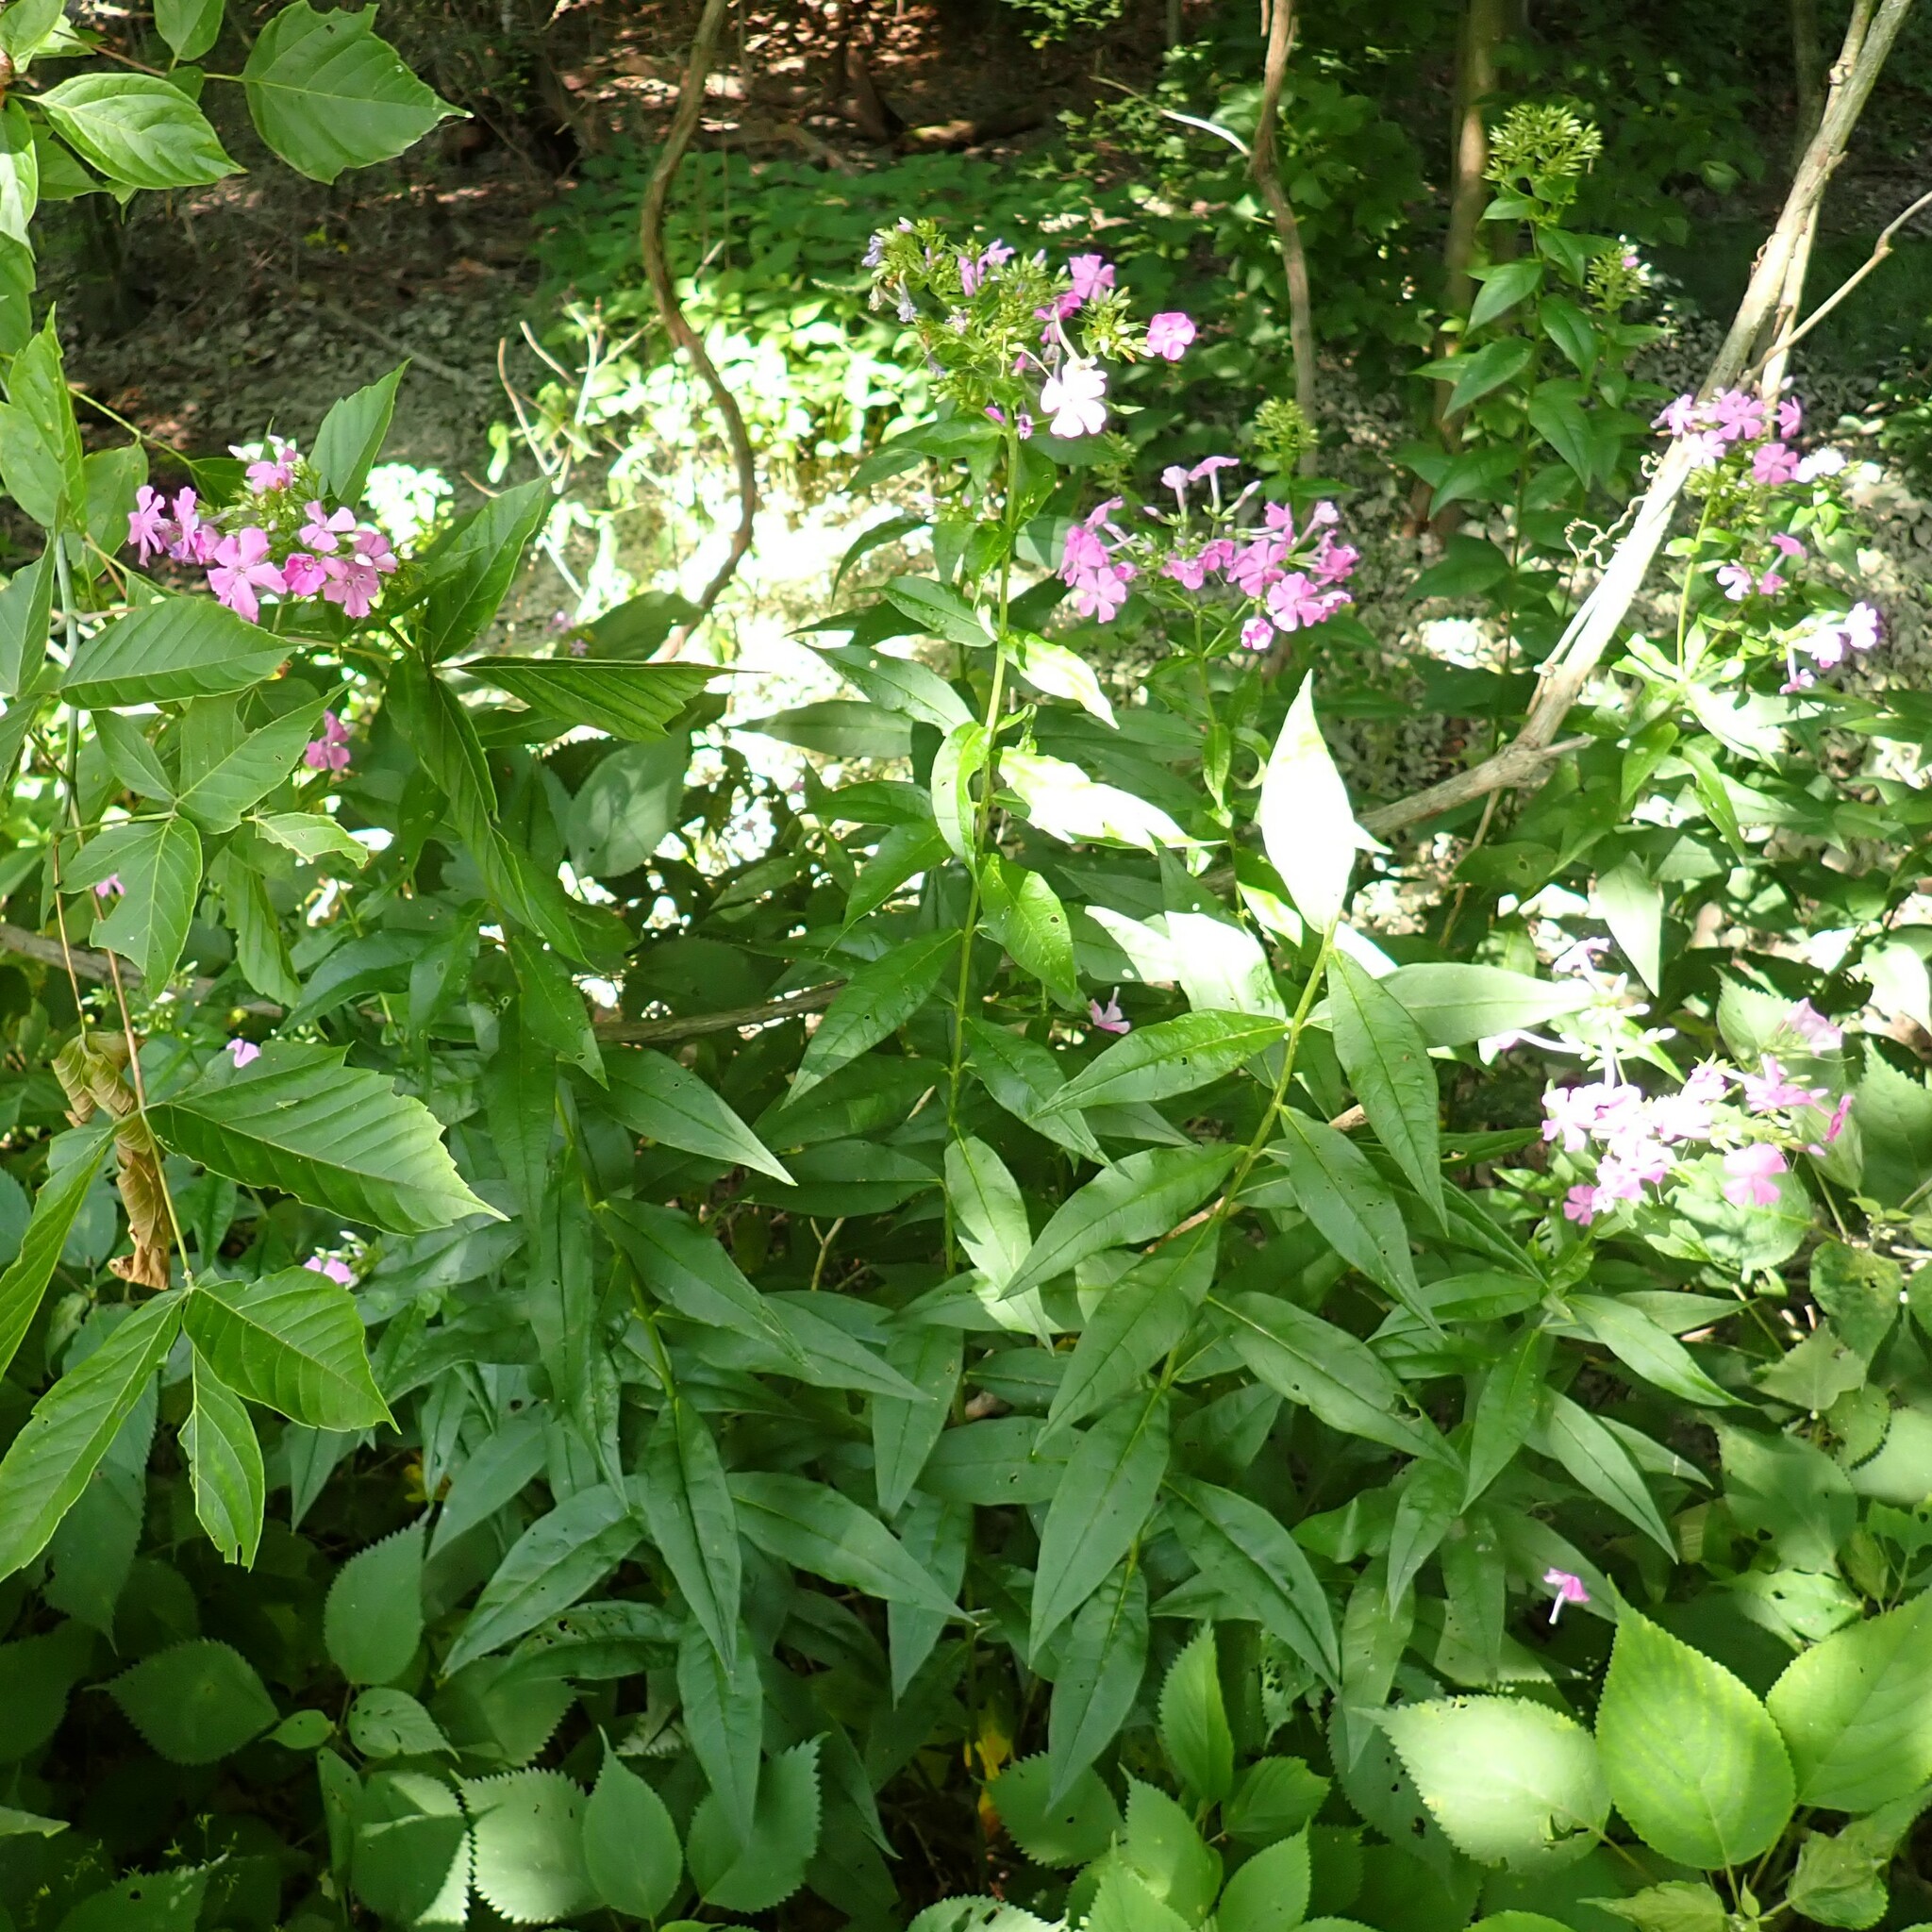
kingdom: Plantae
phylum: Tracheophyta
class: Magnoliopsida
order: Ericales
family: Polemoniaceae
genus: Phlox
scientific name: Phlox paniculata
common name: Fall phlox
